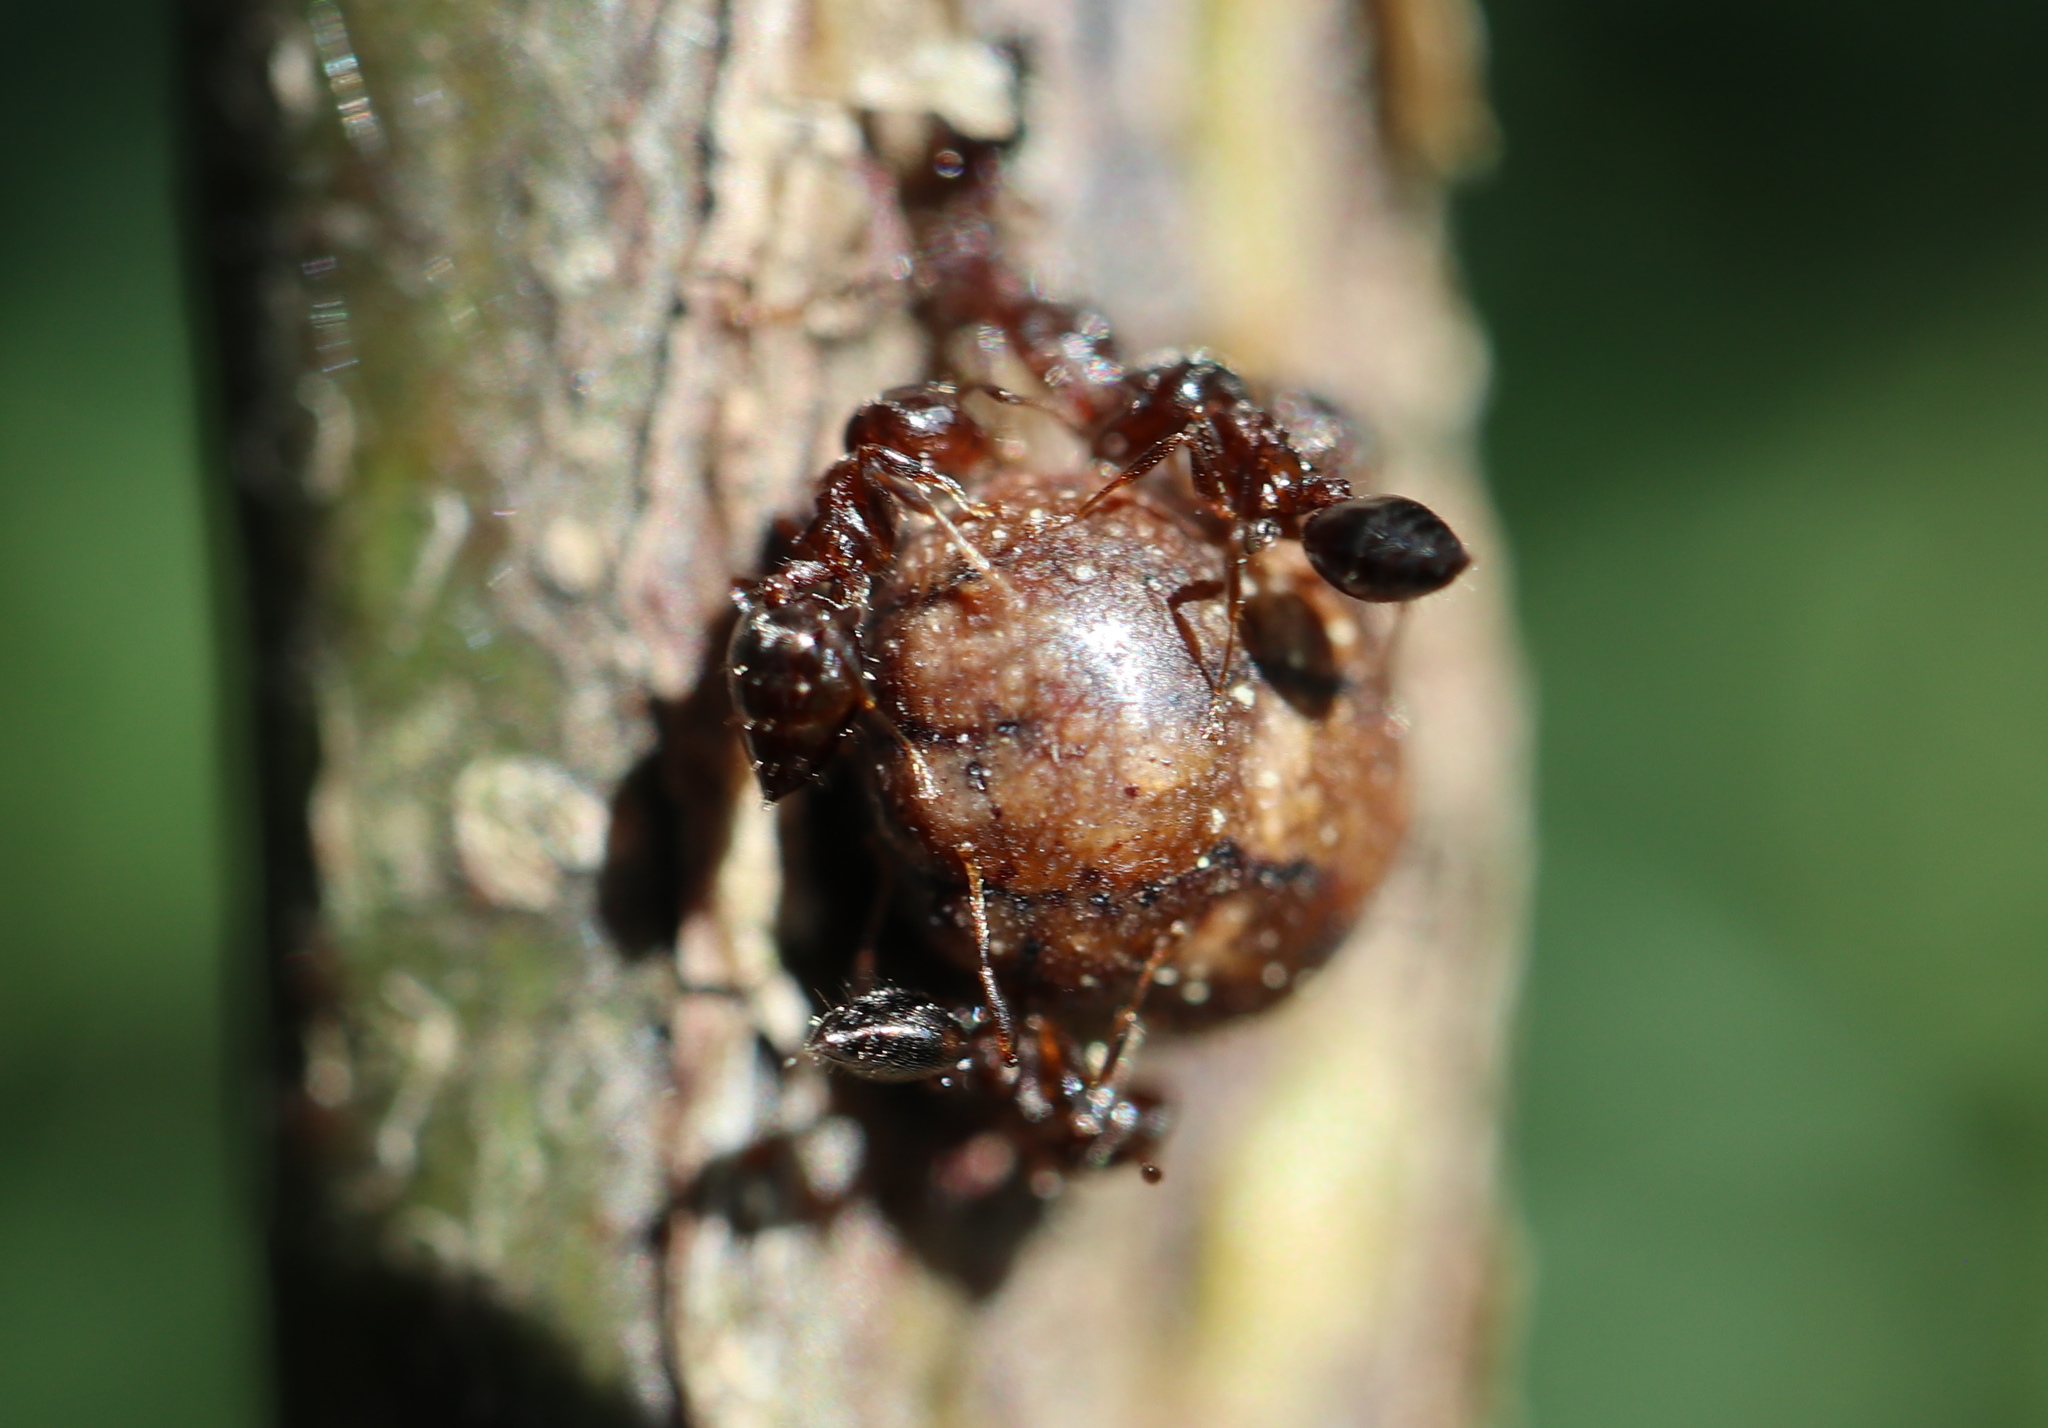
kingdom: Animalia
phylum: Arthropoda
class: Insecta
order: Hemiptera
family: Kermesidae
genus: Allokermes
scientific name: Allokermes galliformis
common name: Gall-like kermes
